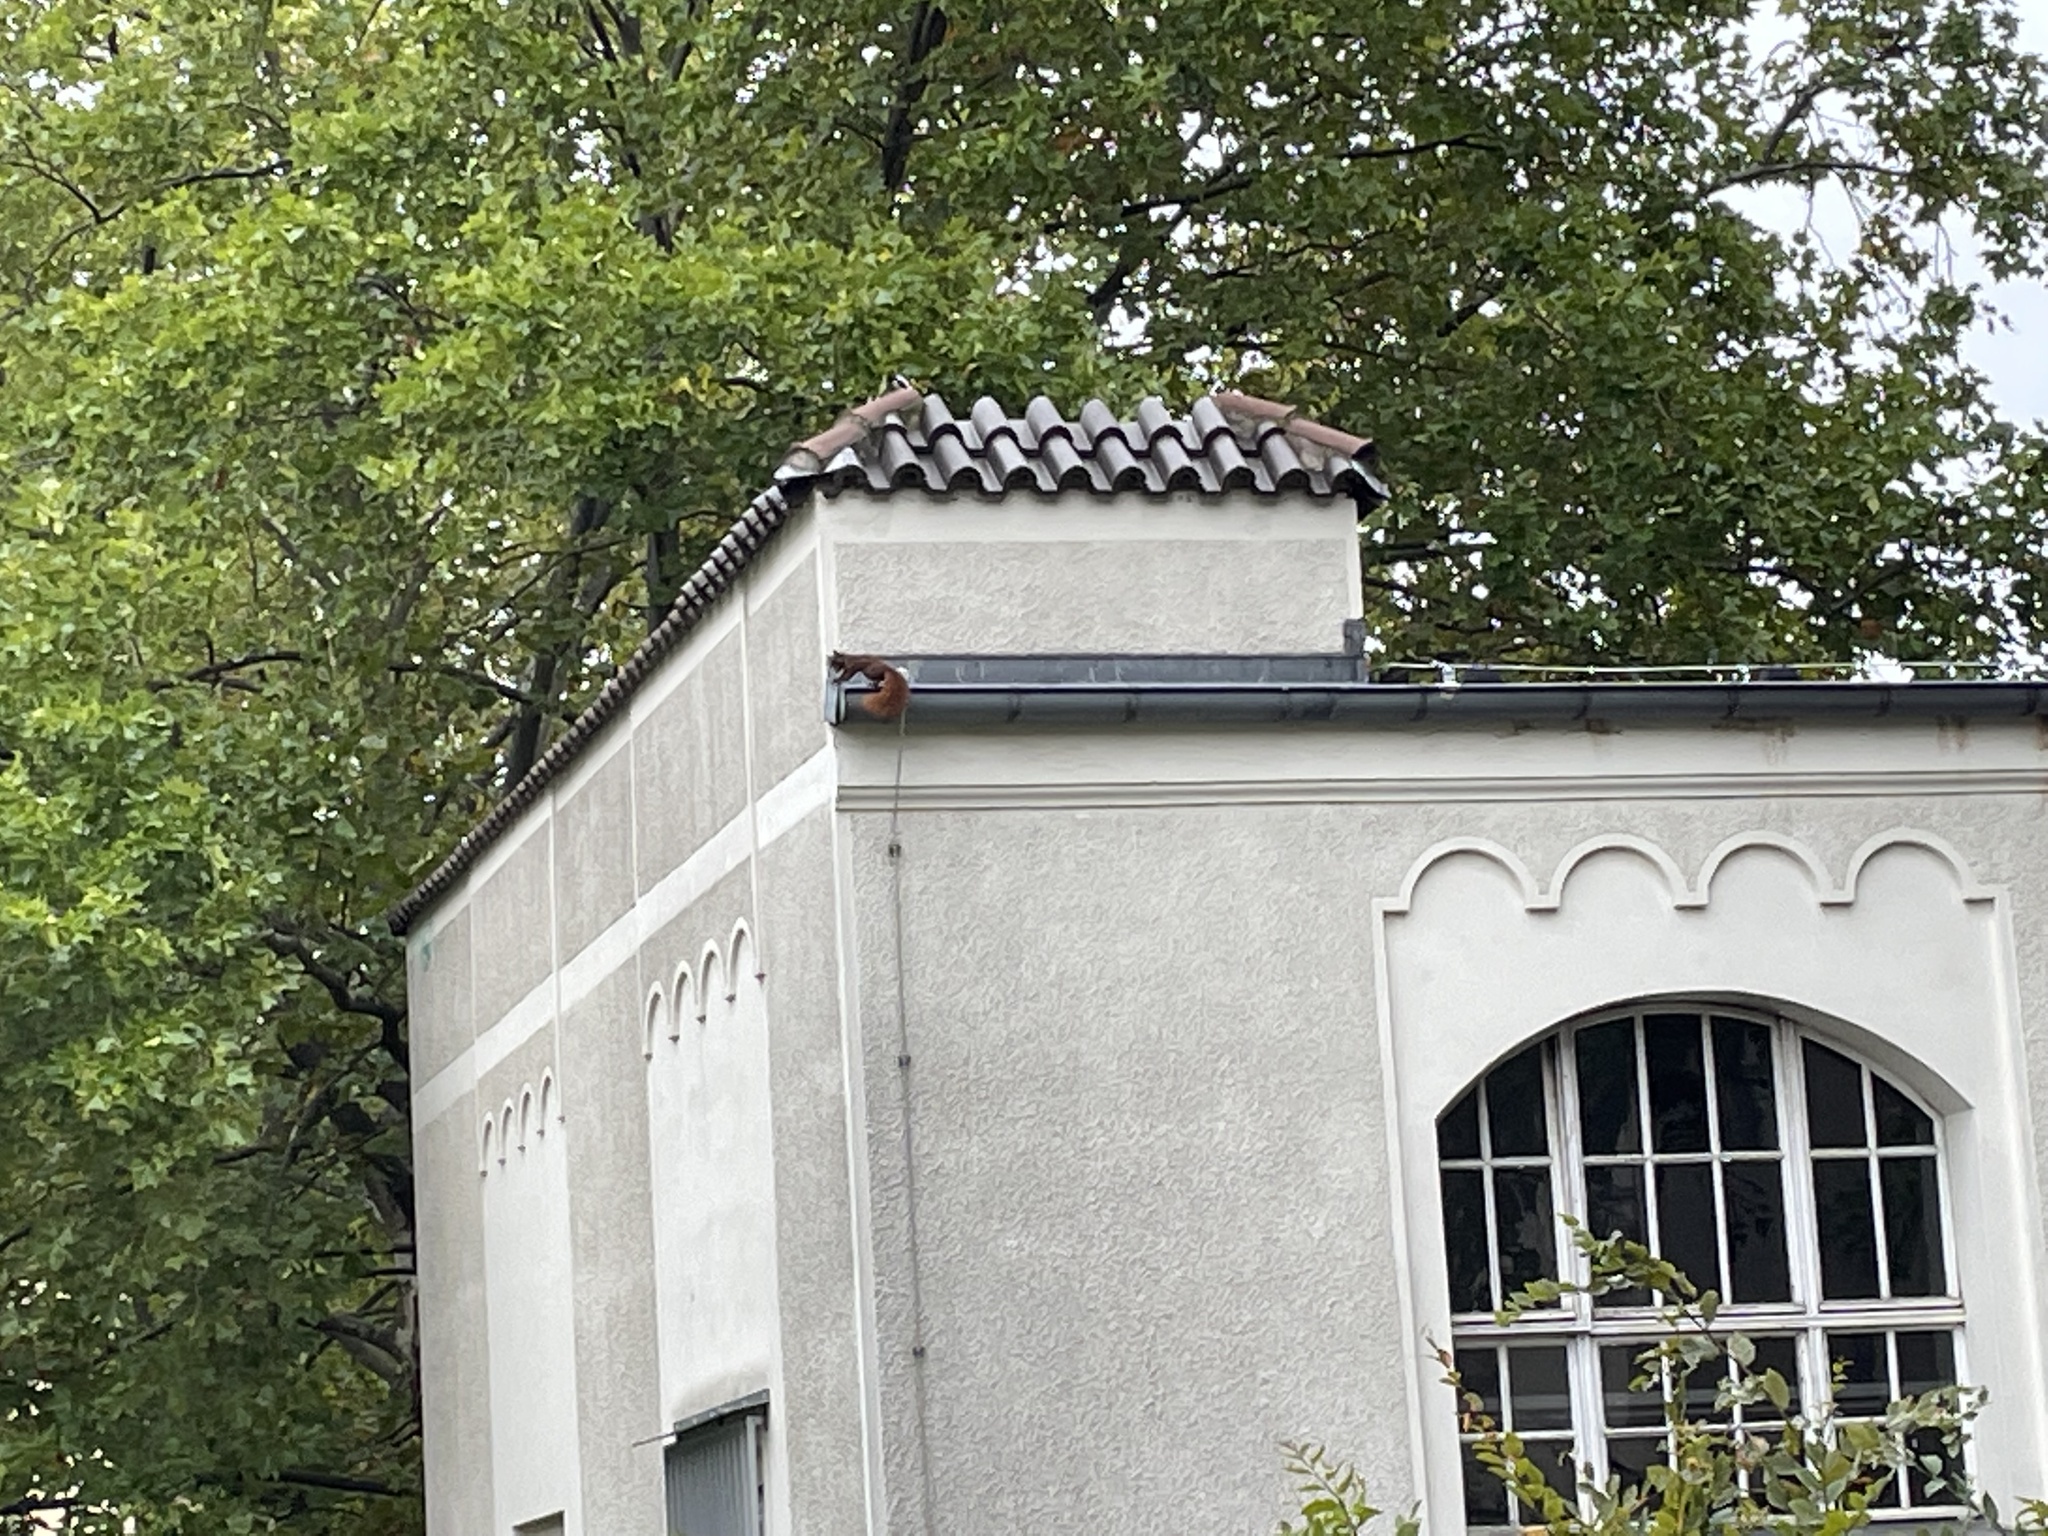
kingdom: Animalia
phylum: Chordata
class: Mammalia
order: Rodentia
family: Sciuridae
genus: Sciurus
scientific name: Sciurus vulgaris
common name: Eurasian red squirrel
